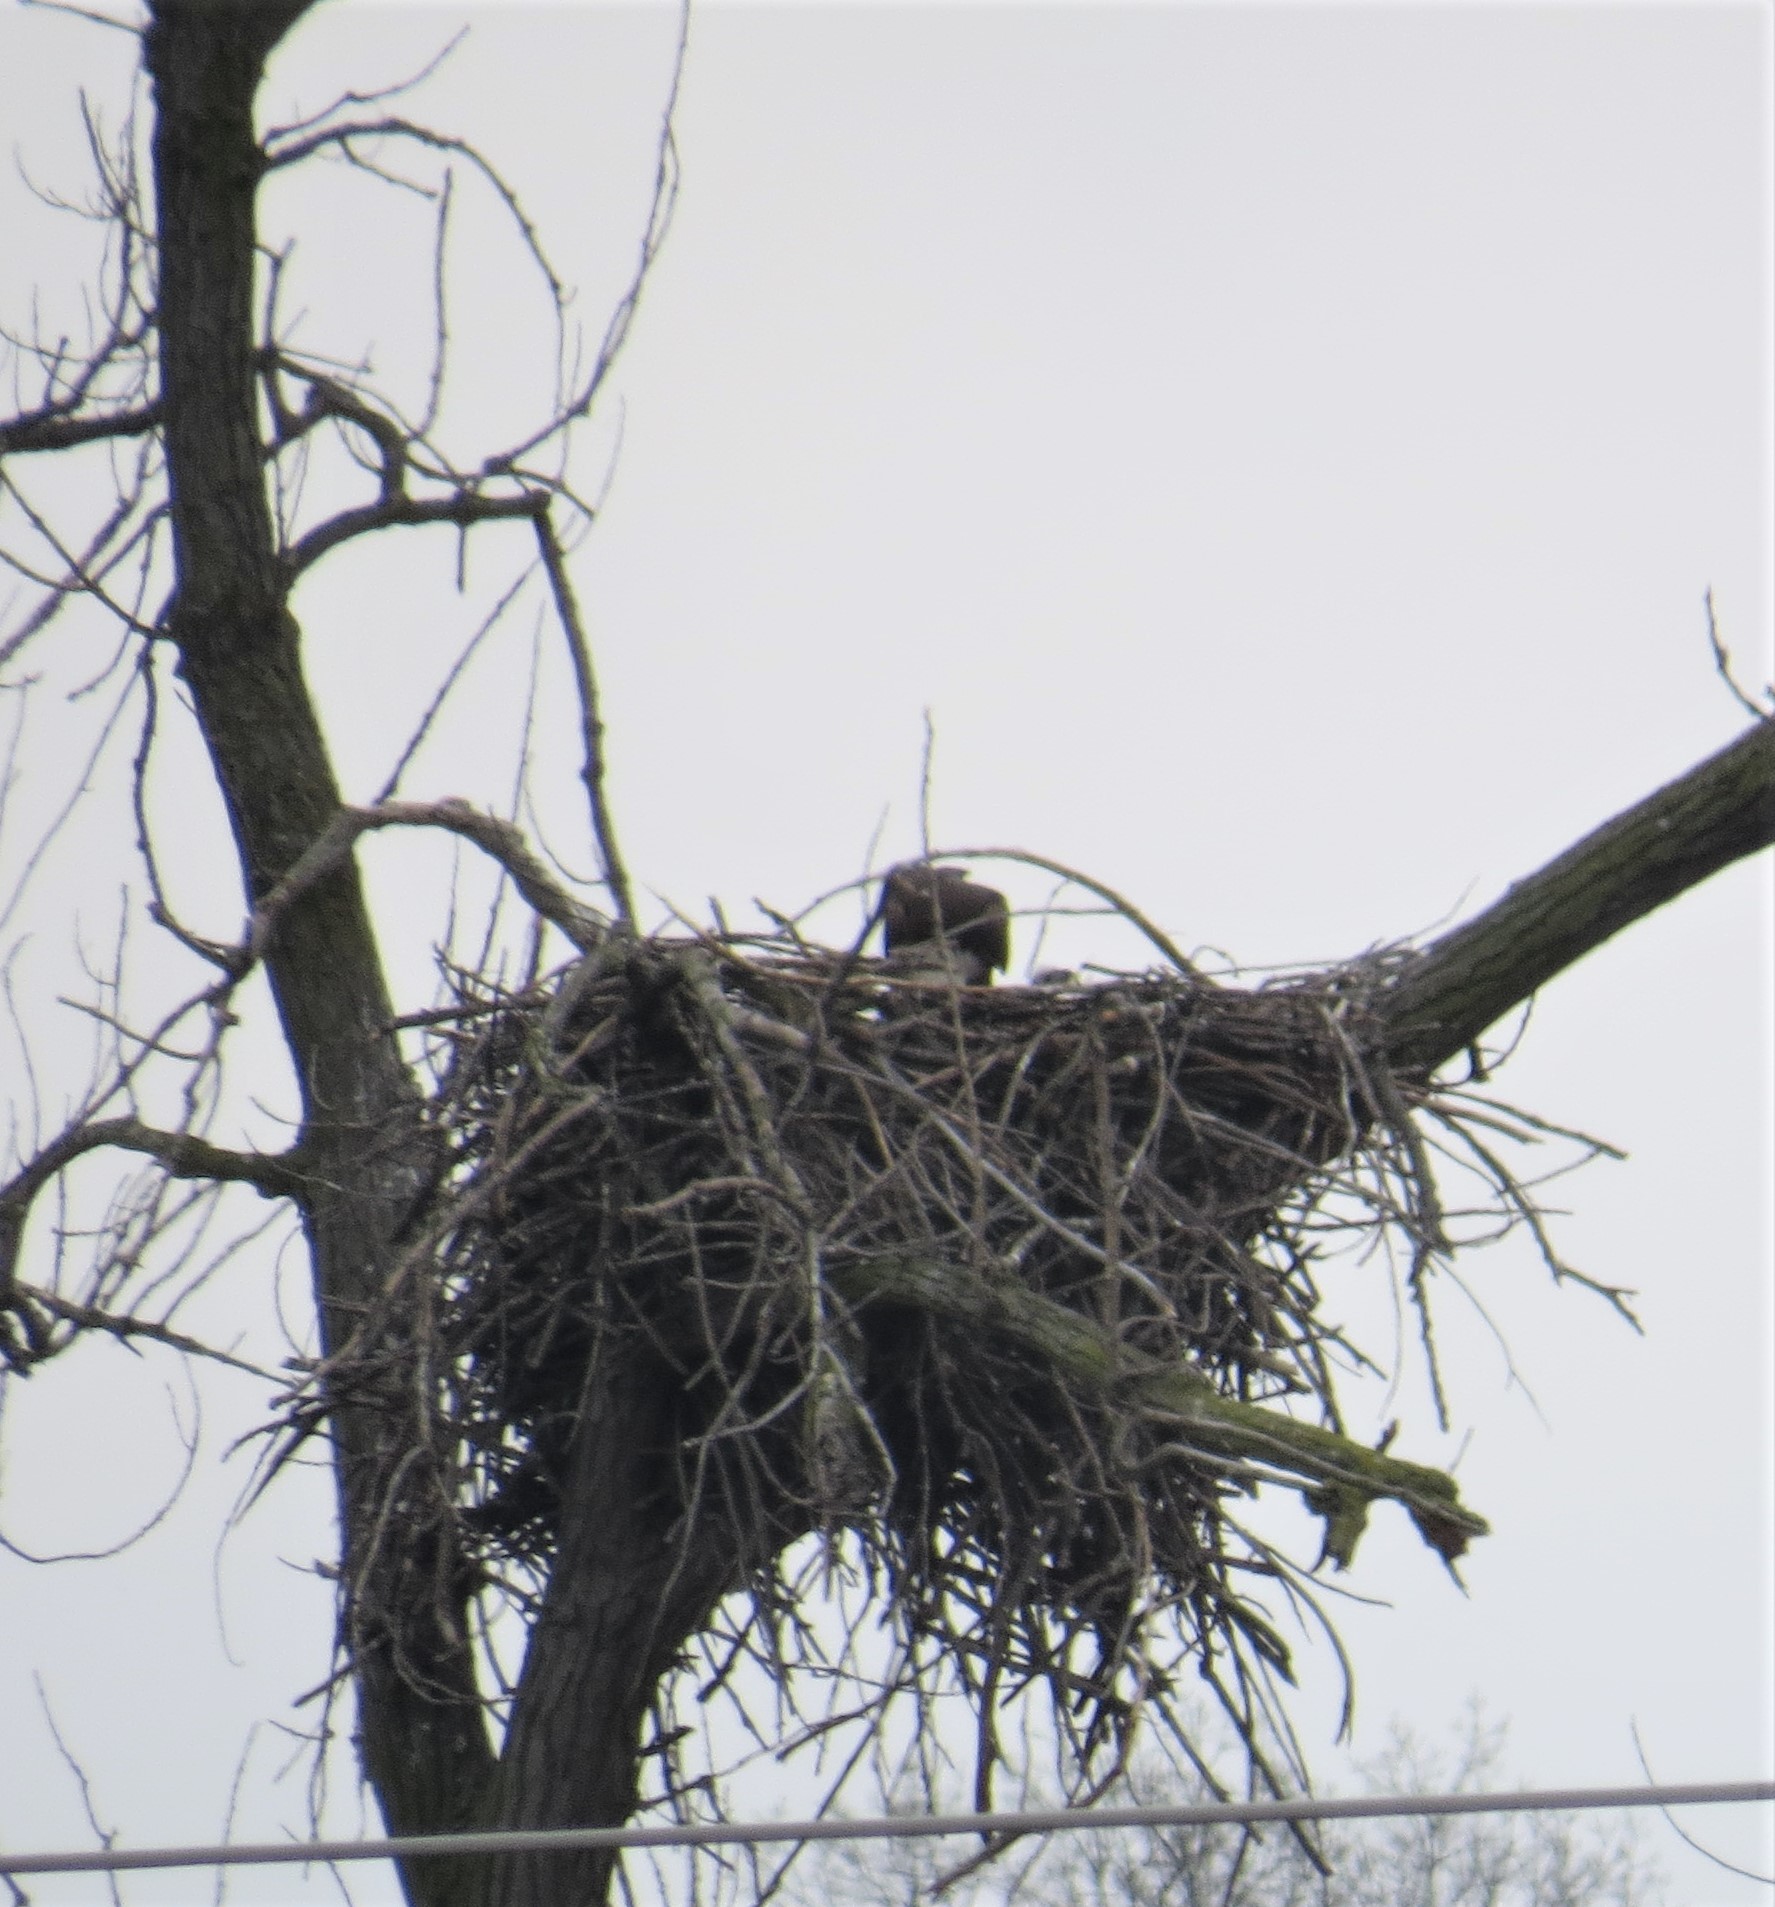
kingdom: Animalia
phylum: Chordata
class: Aves
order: Accipitriformes
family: Accipitridae
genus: Haliaeetus
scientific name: Haliaeetus leucocephalus
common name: Bald eagle
